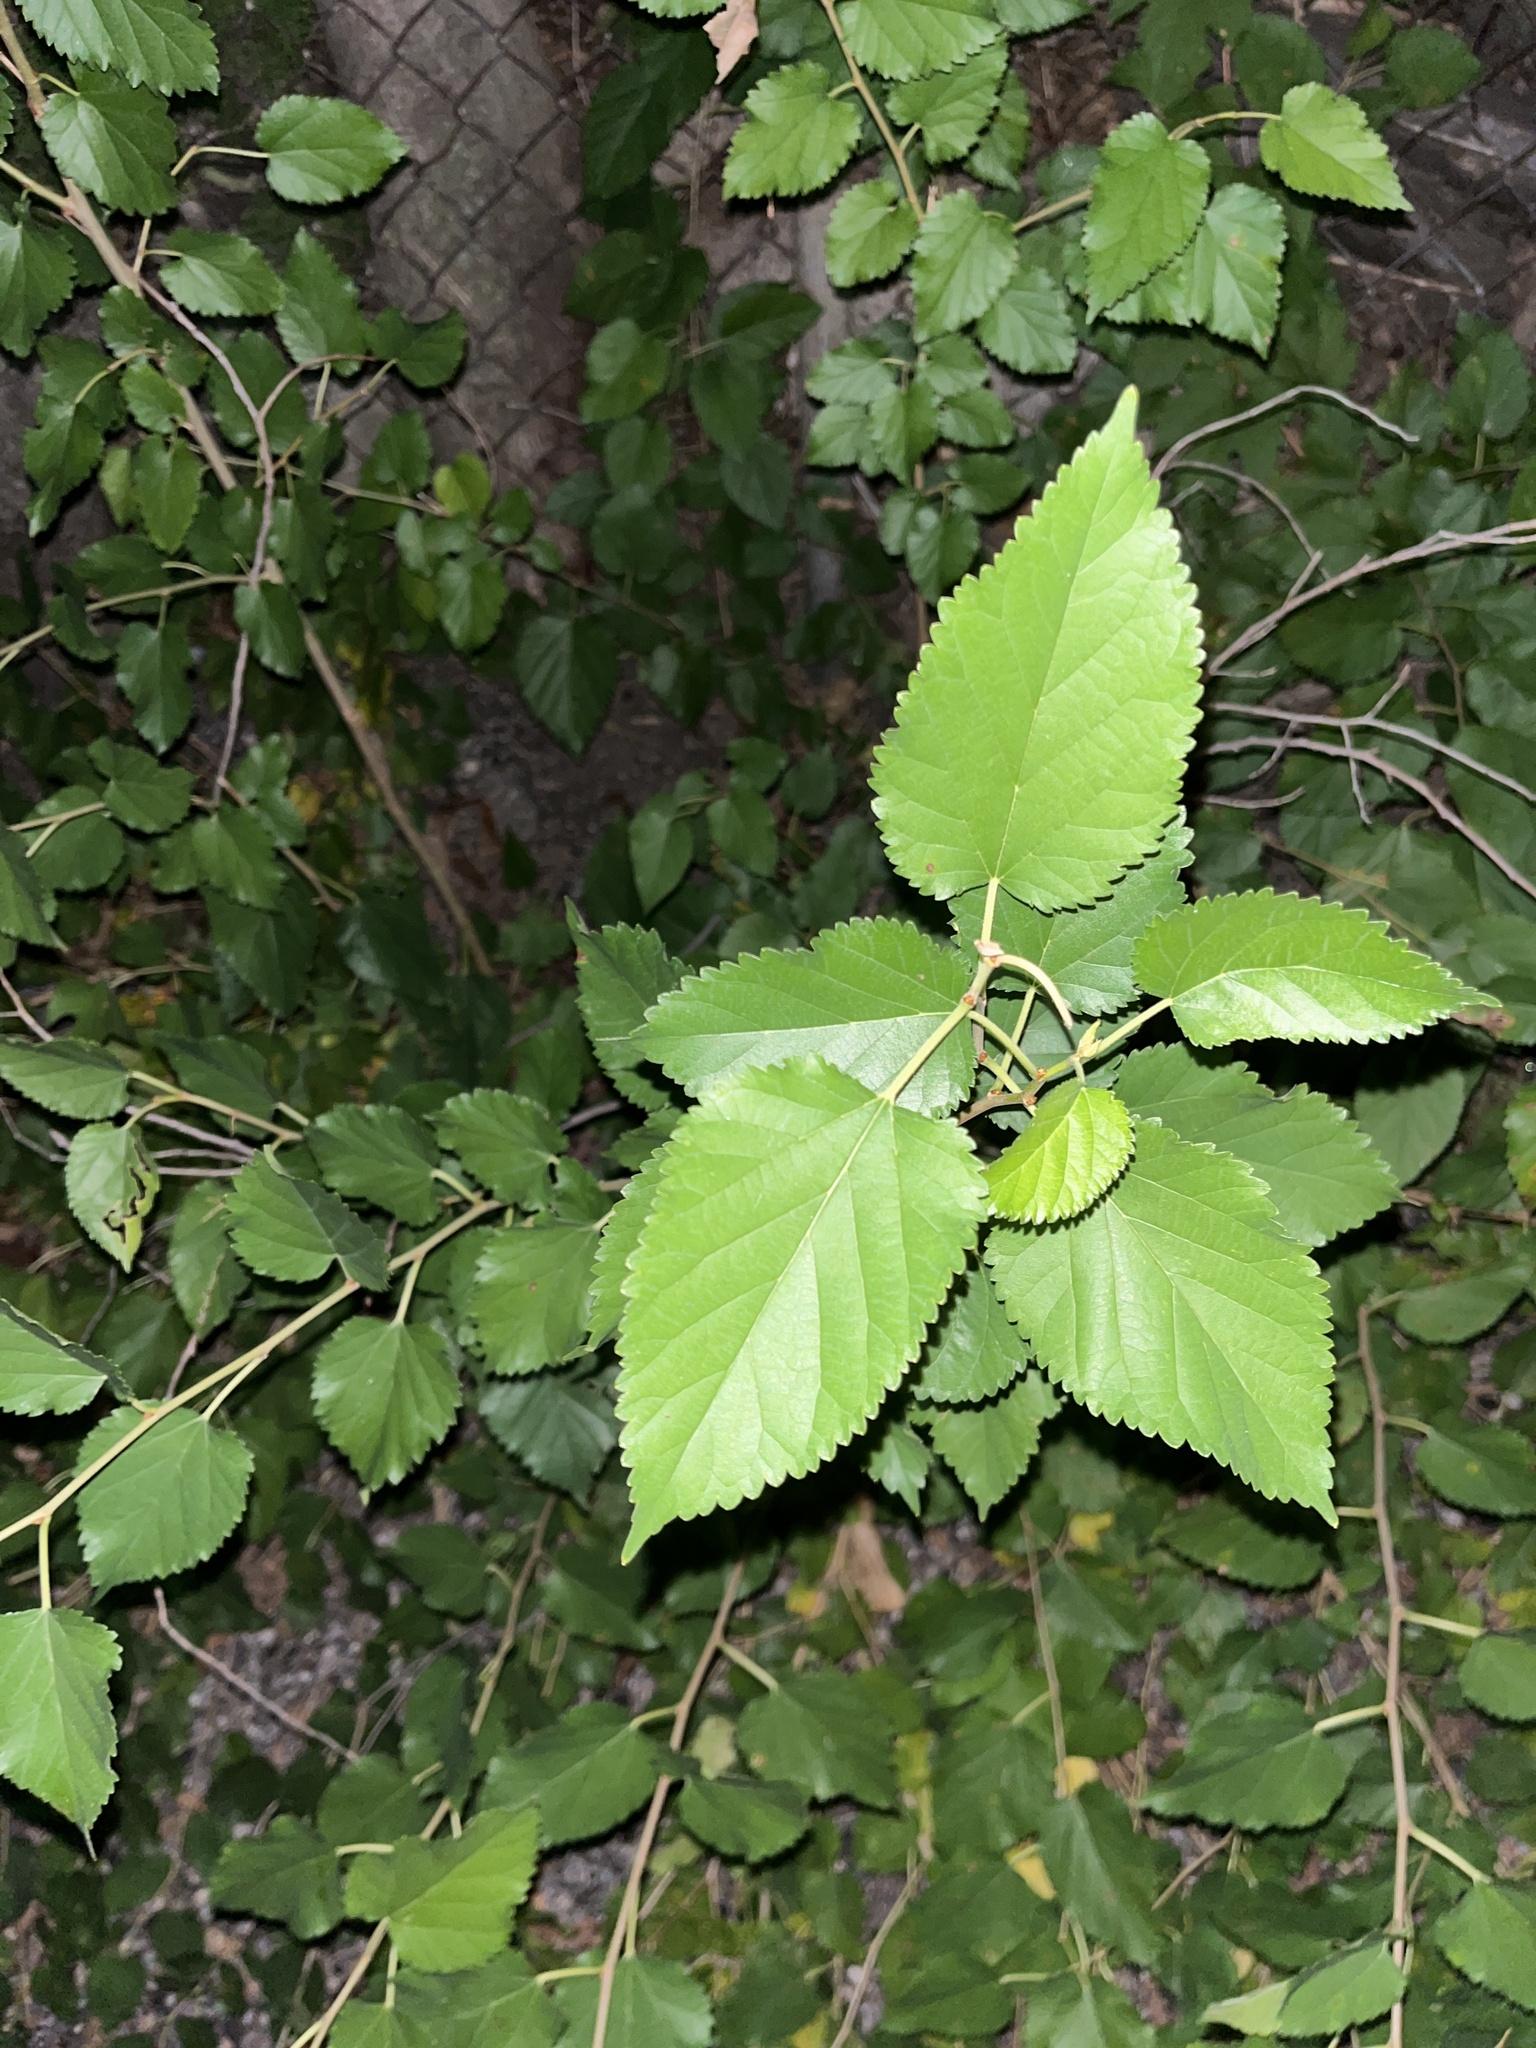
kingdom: Plantae
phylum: Tracheophyta
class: Magnoliopsida
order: Rosales
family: Moraceae
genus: Morus
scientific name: Morus alba
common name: White mulberry
